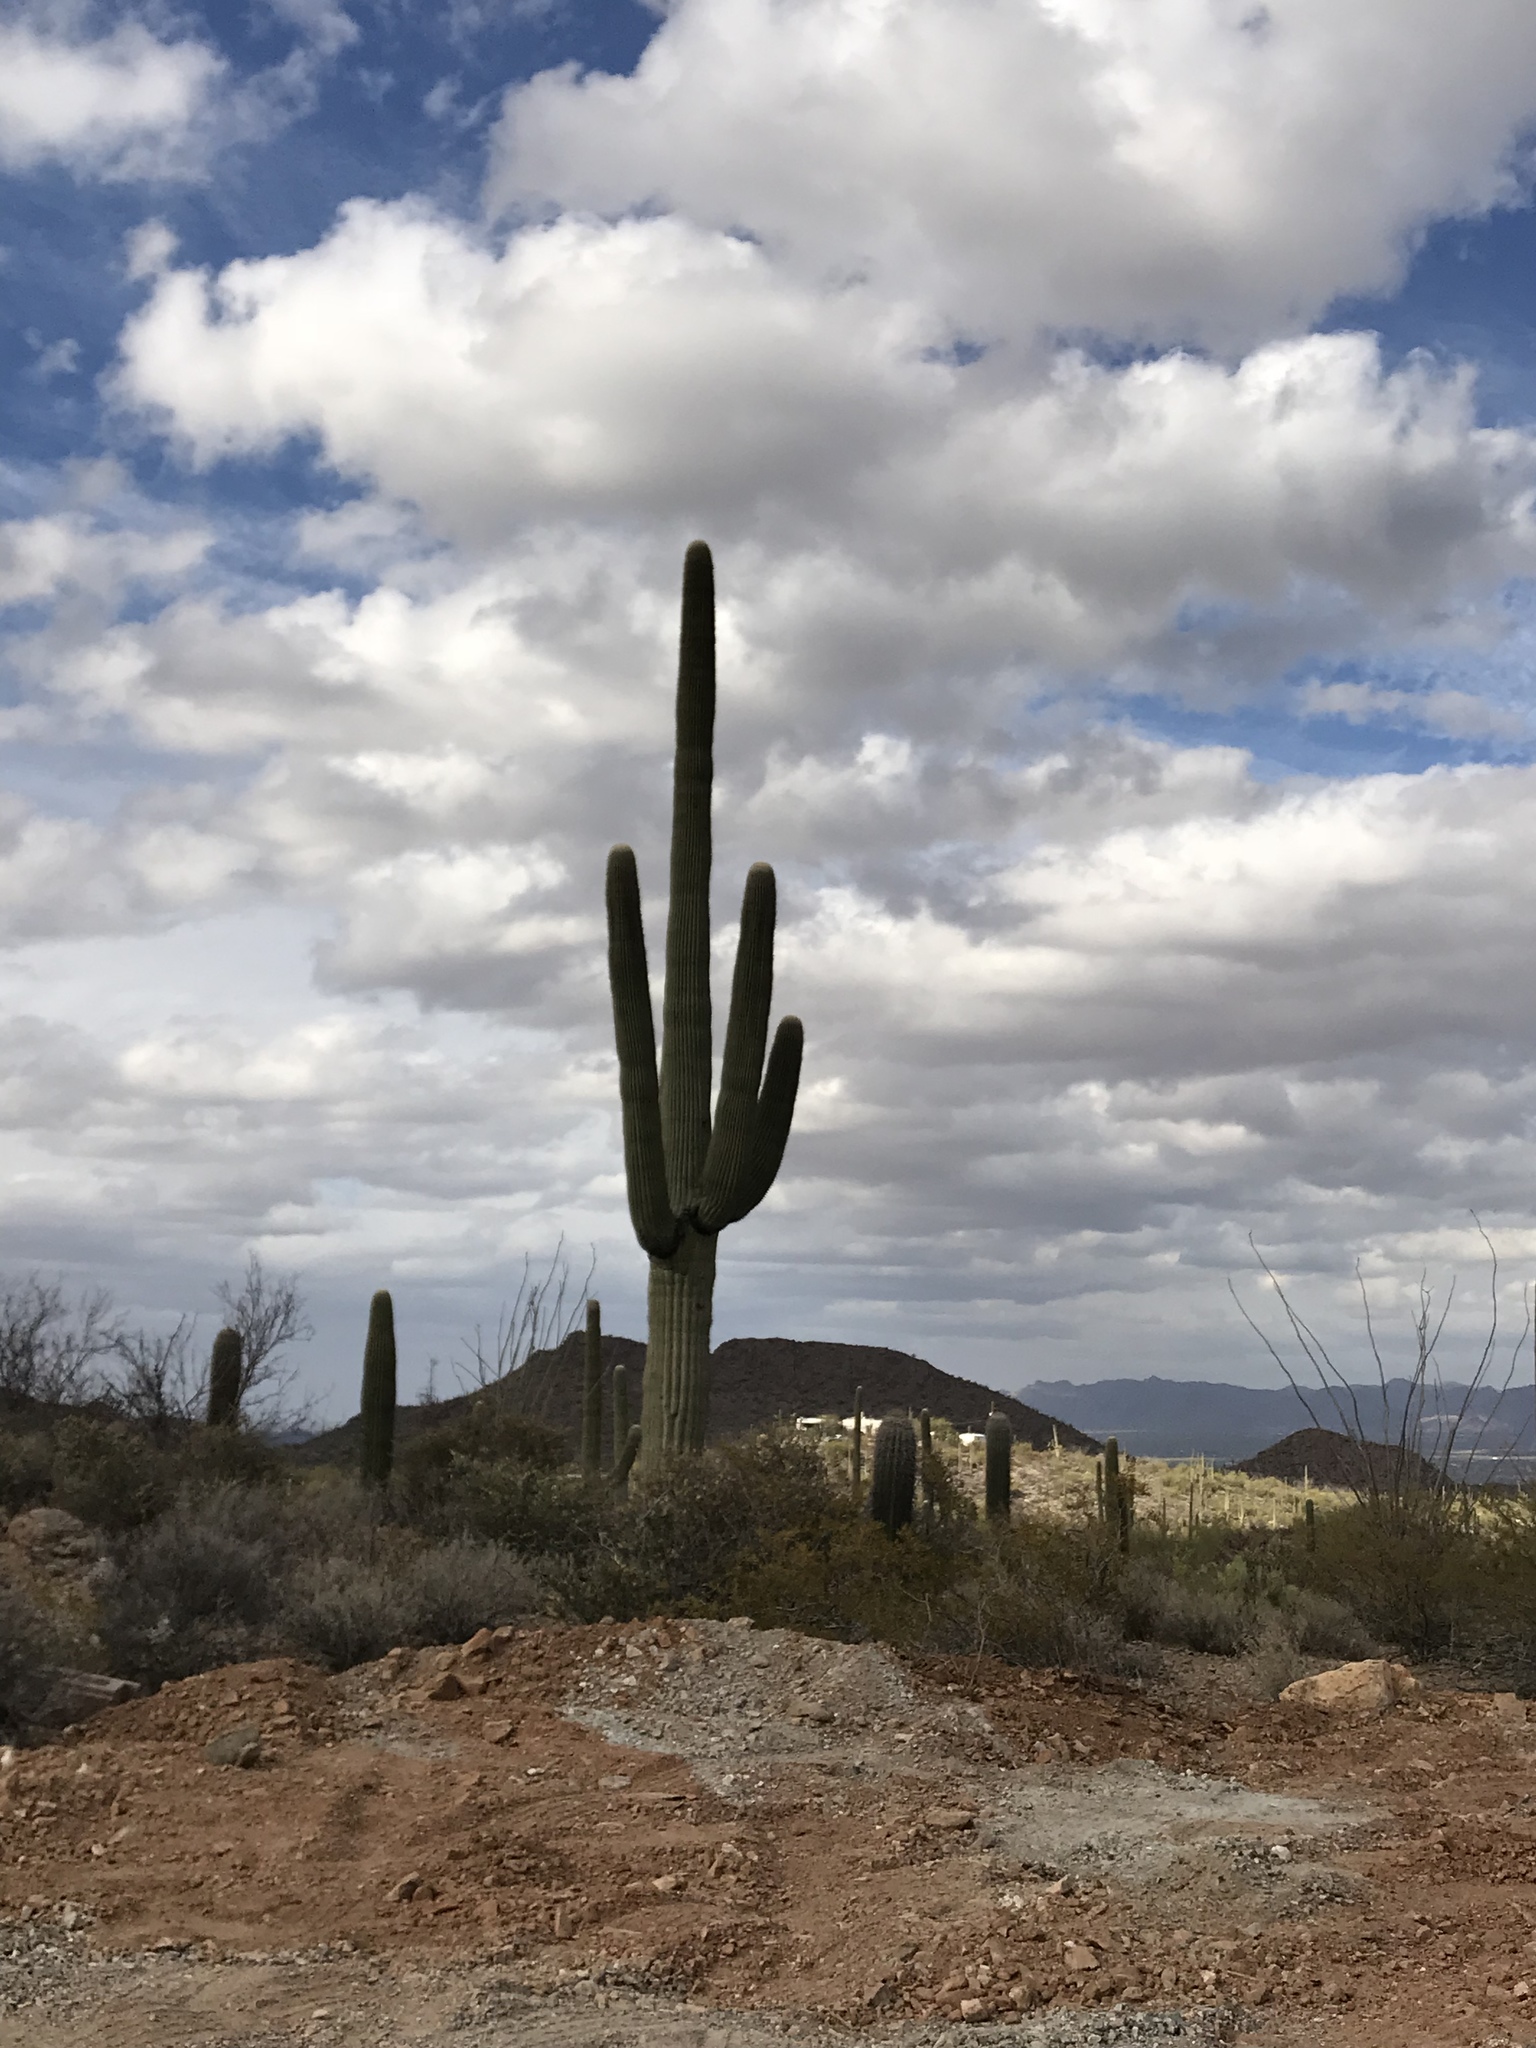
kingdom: Plantae
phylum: Tracheophyta
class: Magnoliopsida
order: Caryophyllales
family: Cactaceae
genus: Carnegiea
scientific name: Carnegiea gigantea
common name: Saguaro
